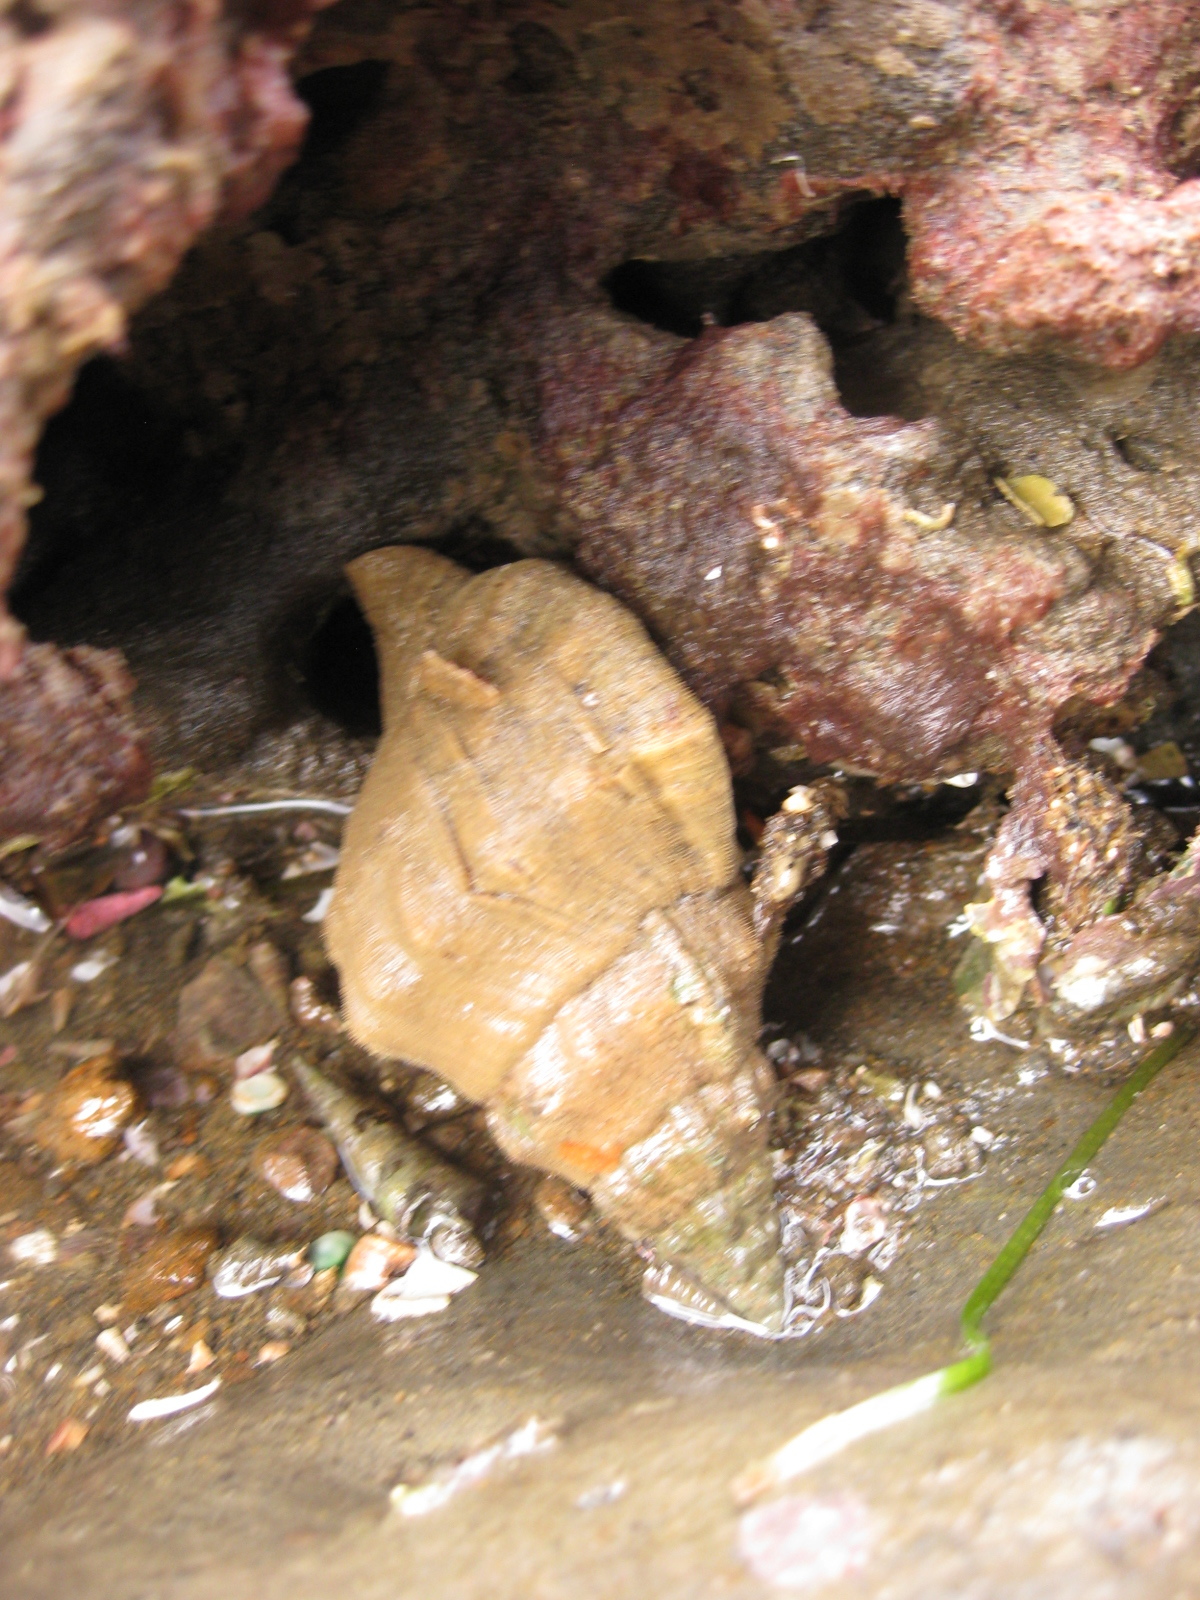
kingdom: Animalia
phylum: Mollusca
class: Gastropoda
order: Littorinimorpha
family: Ranellidae
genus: Ranella
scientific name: Ranella australasia
